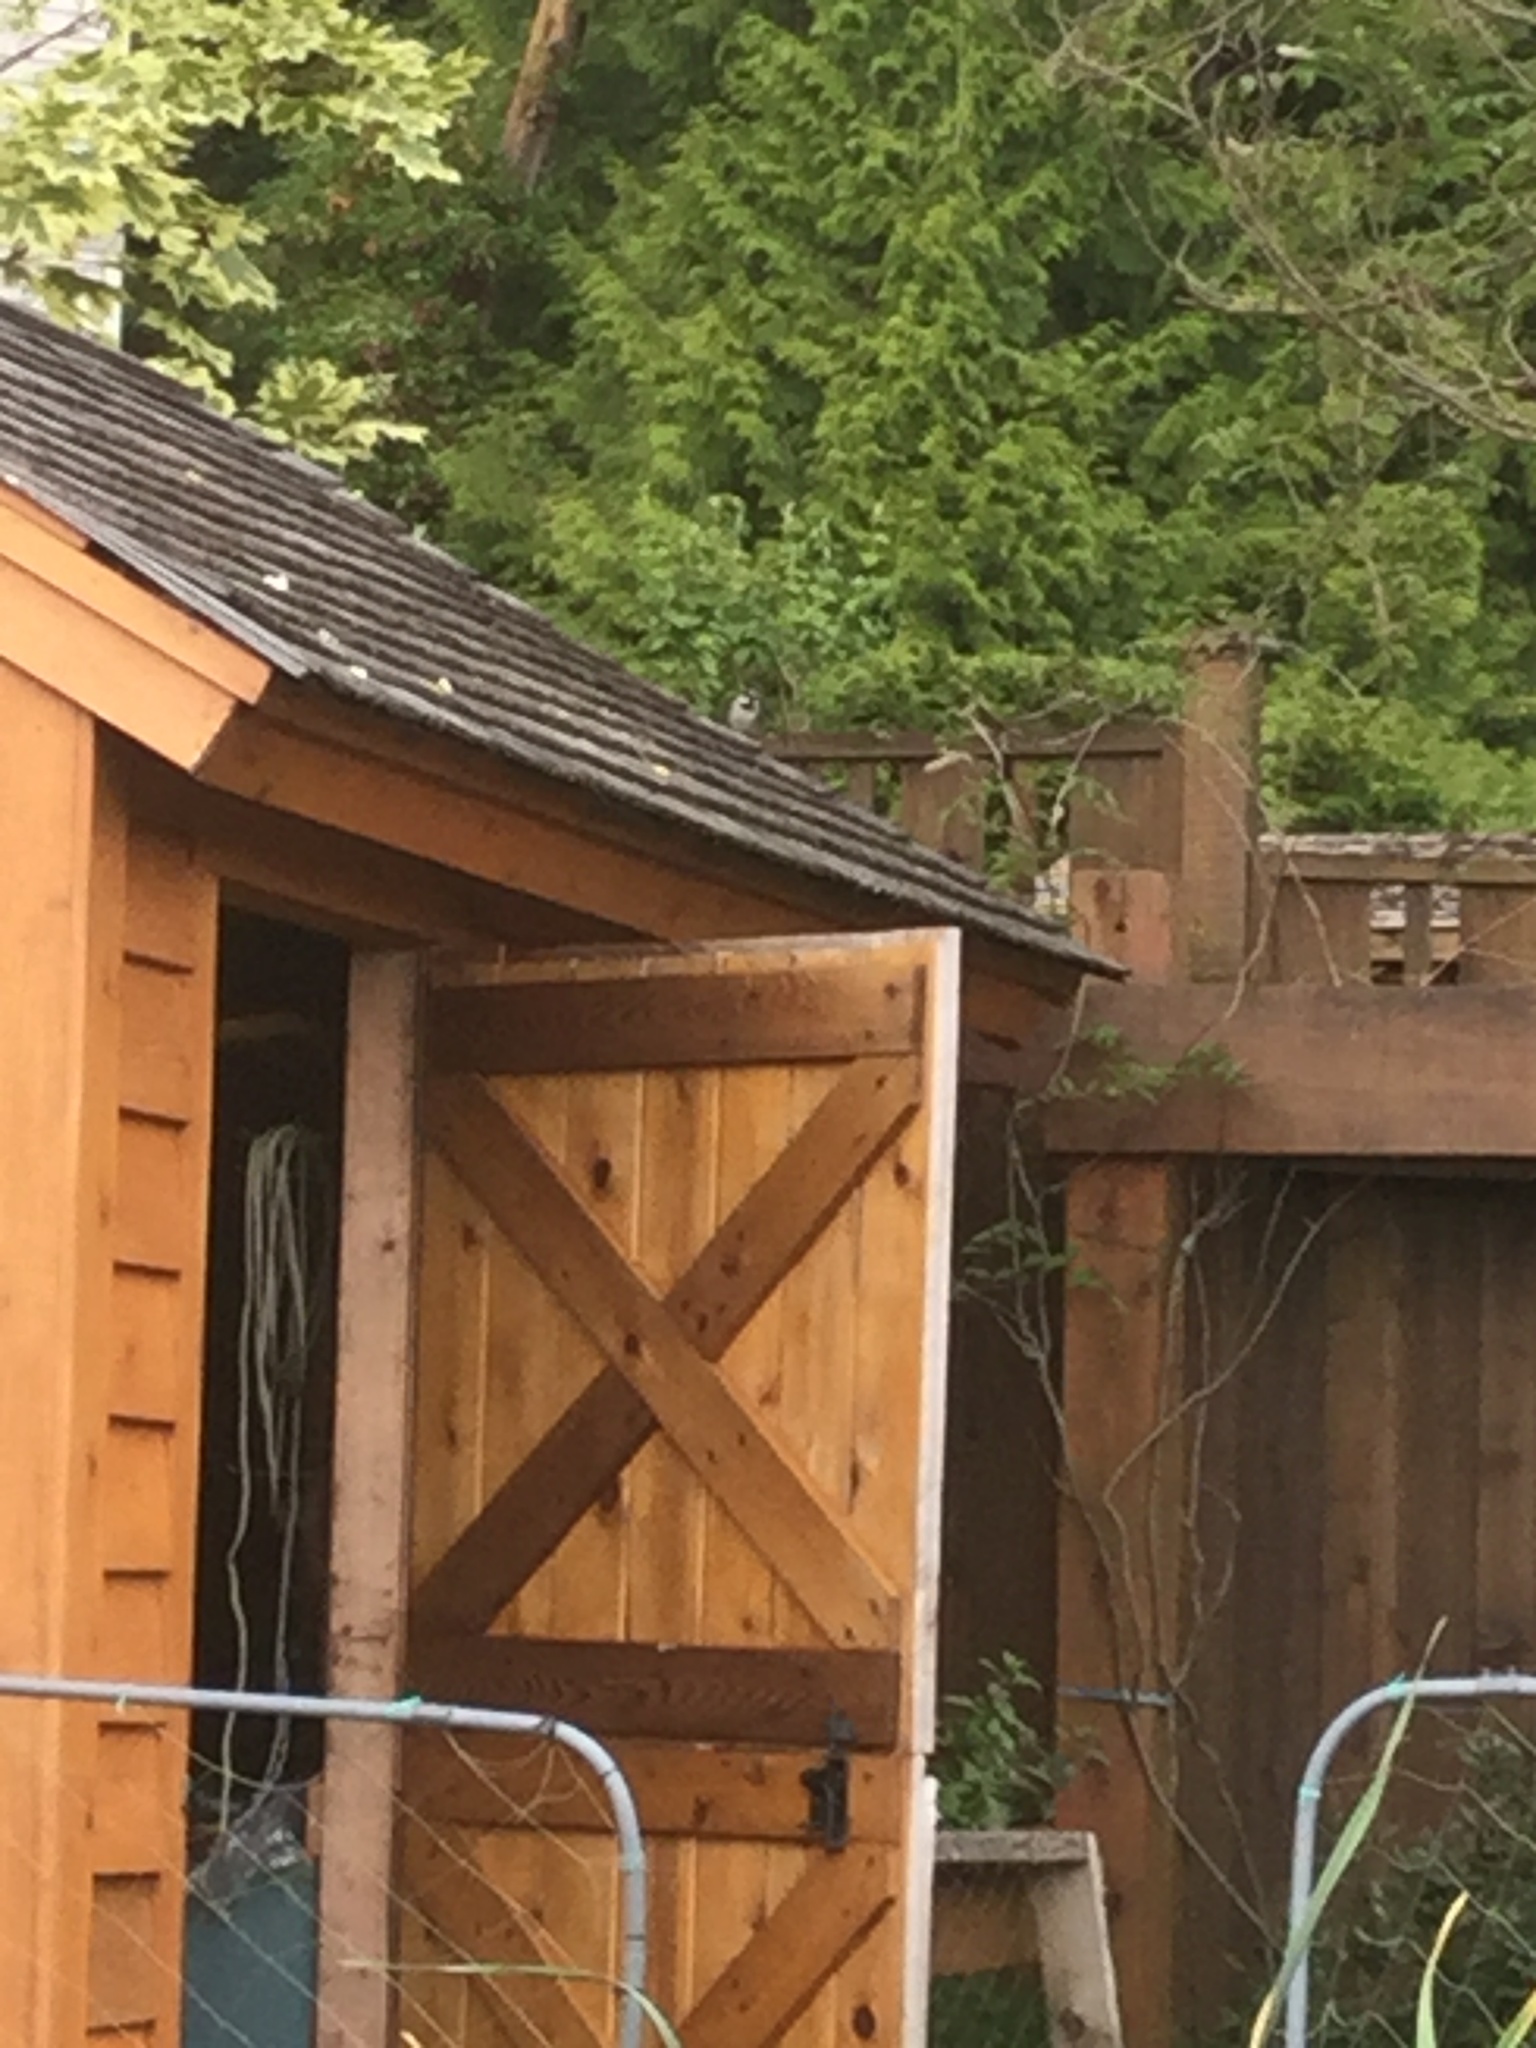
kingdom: Animalia
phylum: Chordata
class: Aves
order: Passeriformes
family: Passeridae
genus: Passer
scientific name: Passer domesticus
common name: House sparrow
